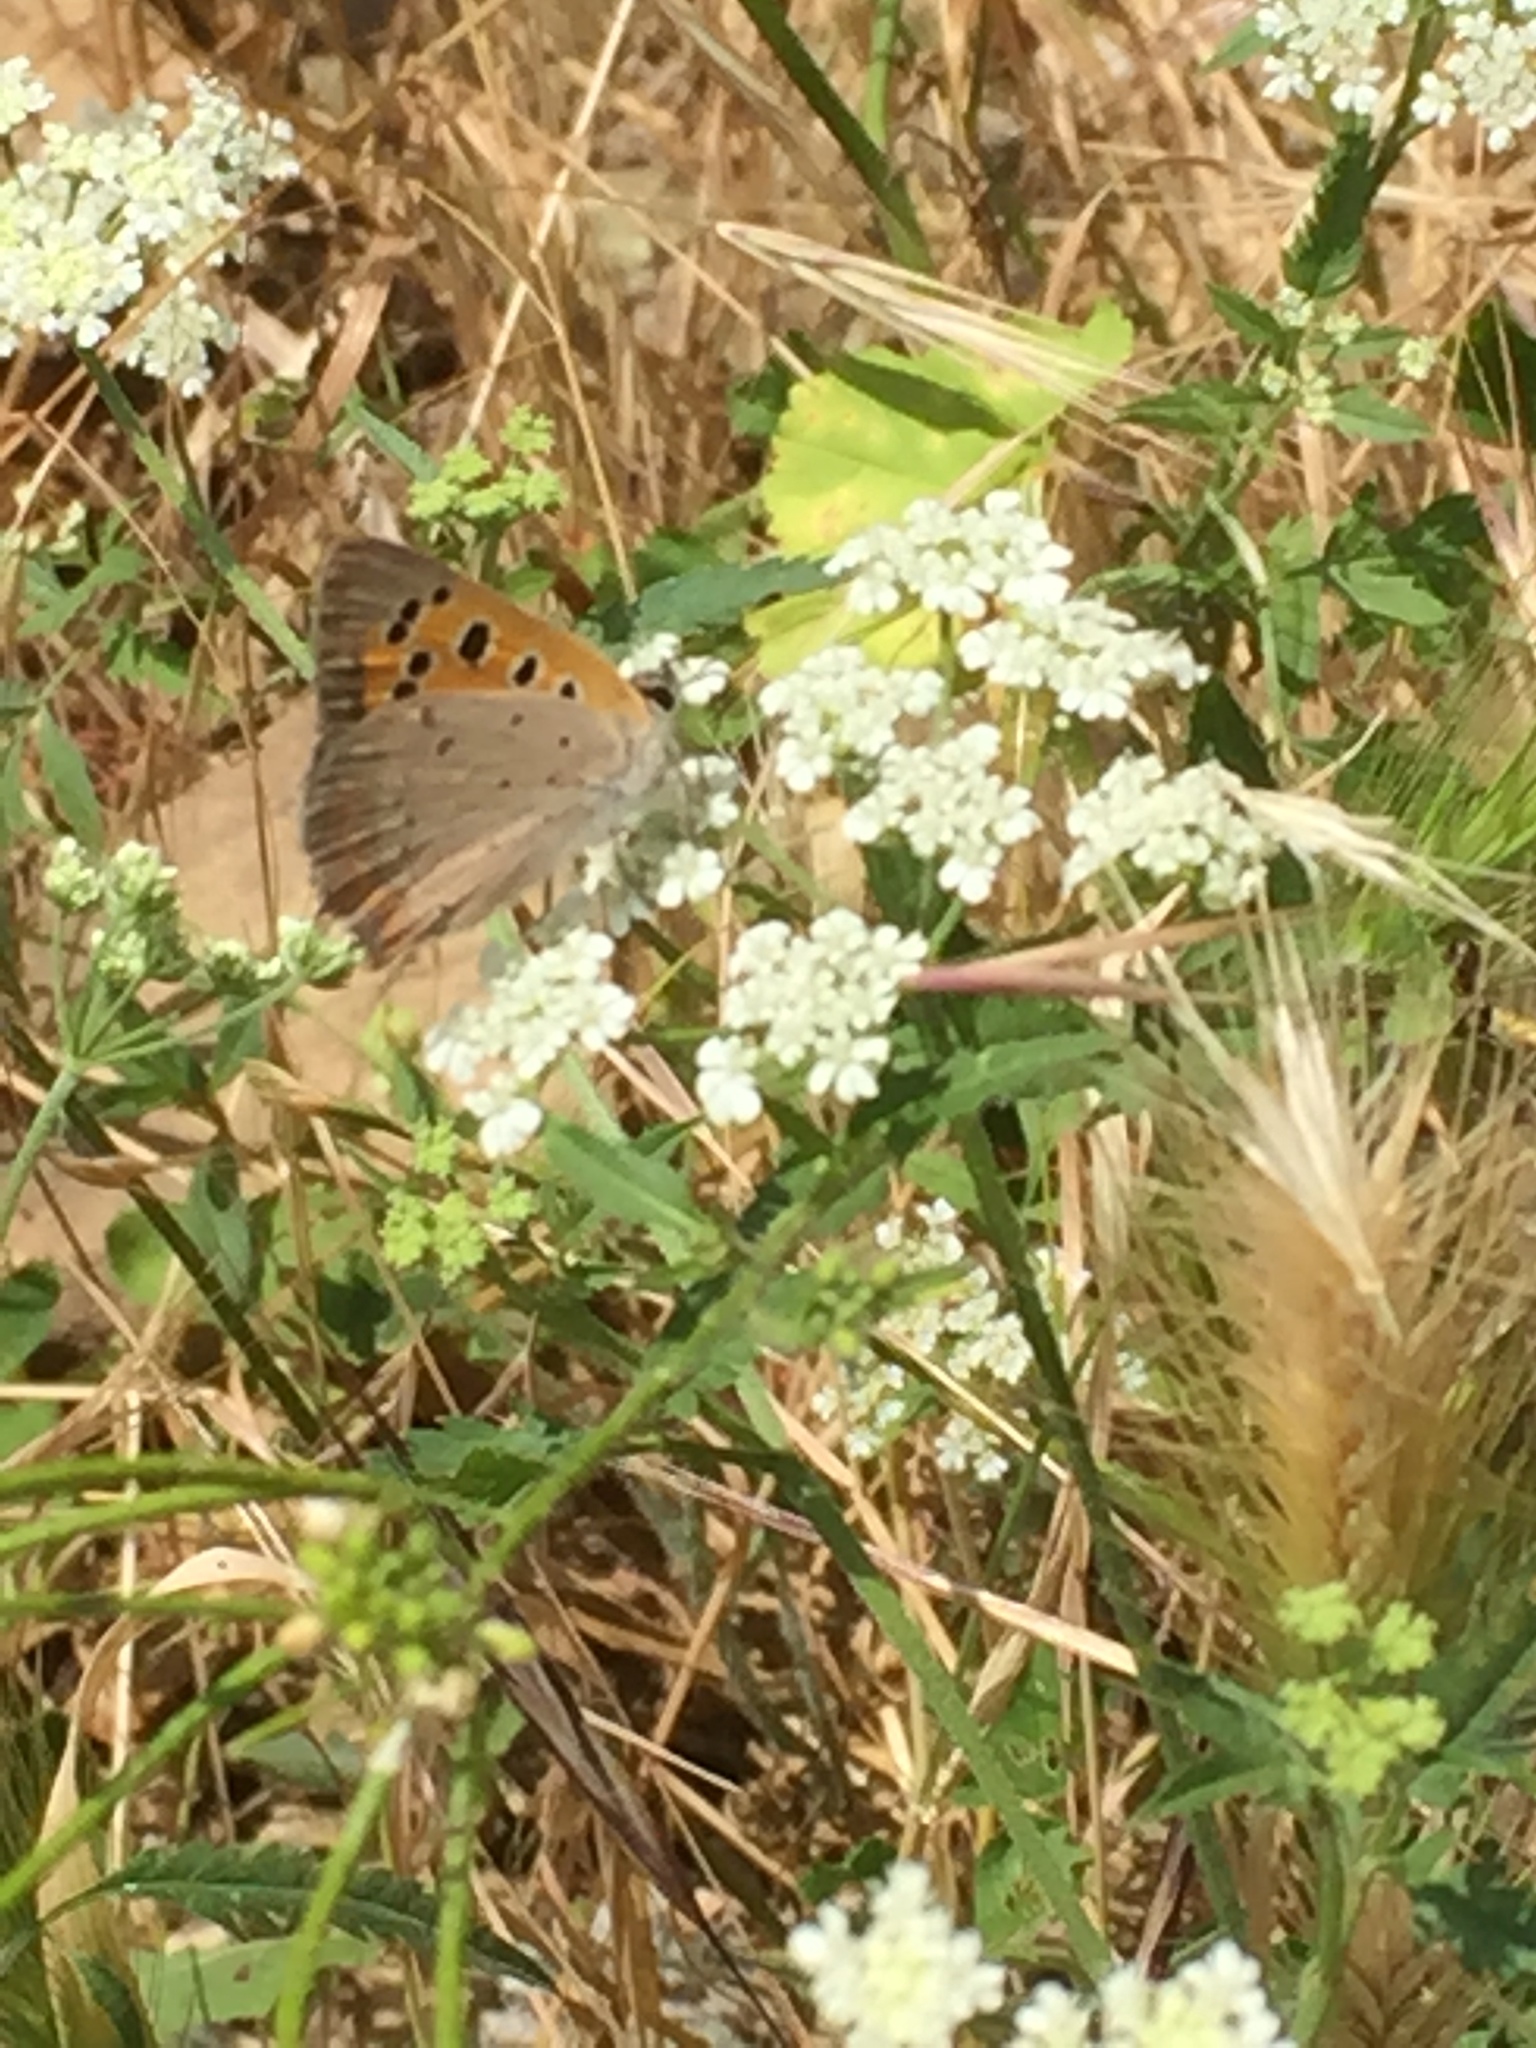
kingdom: Animalia
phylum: Arthropoda
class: Insecta
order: Lepidoptera
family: Lycaenidae
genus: Lycaena
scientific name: Lycaena phlaeas
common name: Small copper
